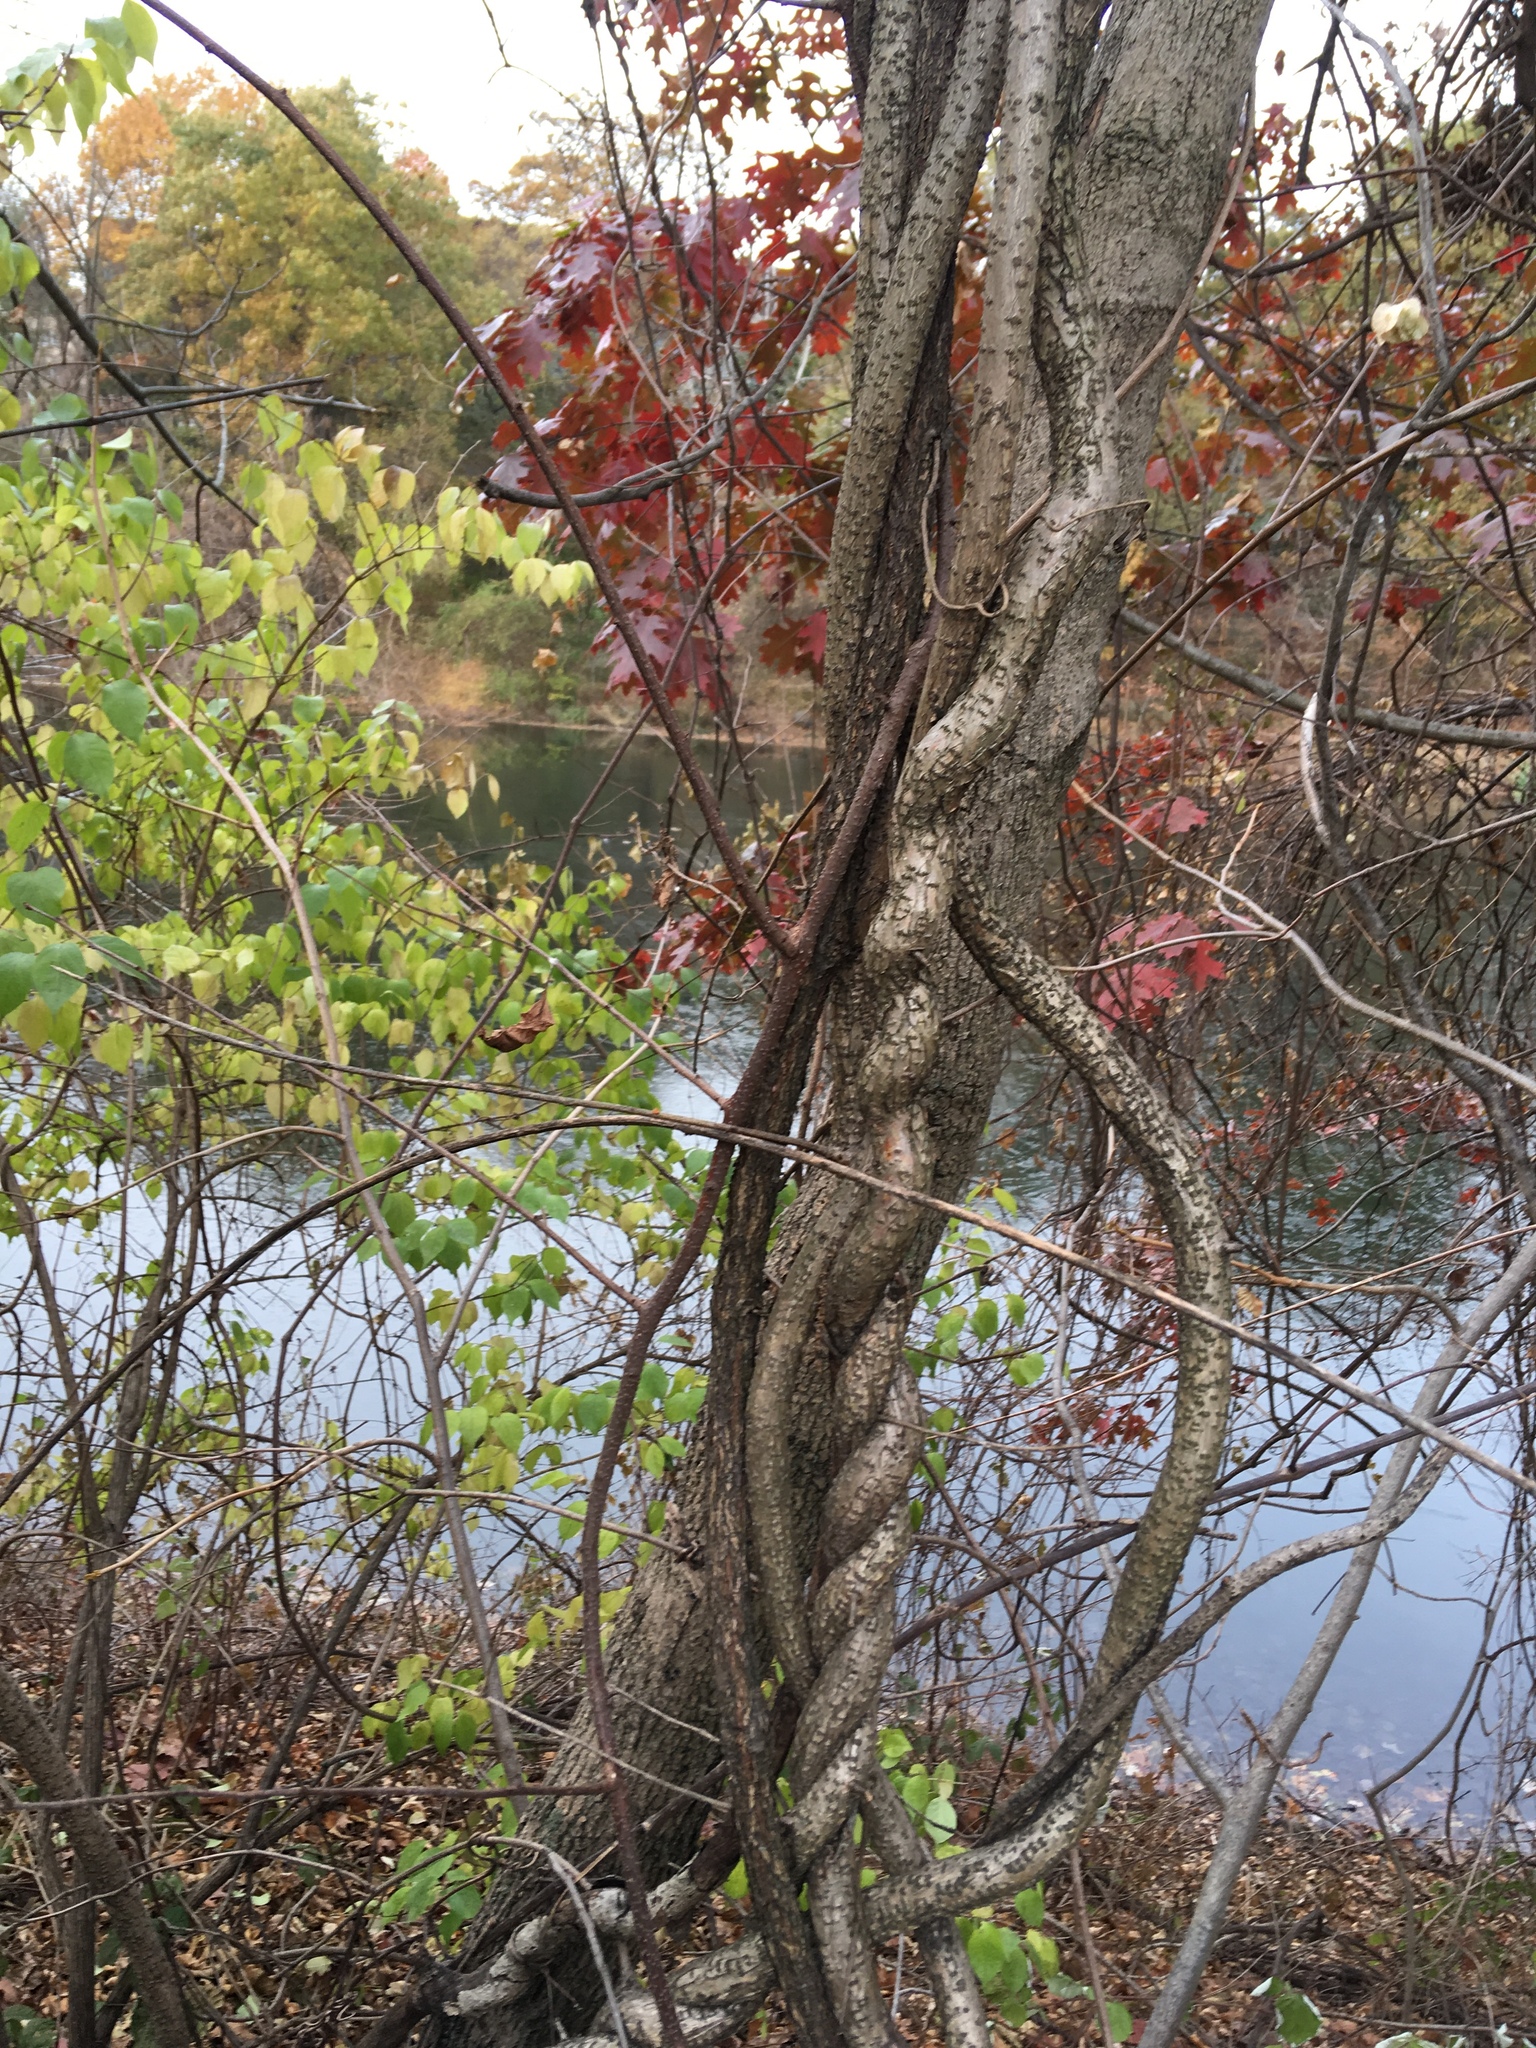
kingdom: Plantae
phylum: Tracheophyta
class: Magnoliopsida
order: Celastrales
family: Celastraceae
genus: Celastrus
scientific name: Celastrus orbiculatus
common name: Oriental bittersweet
